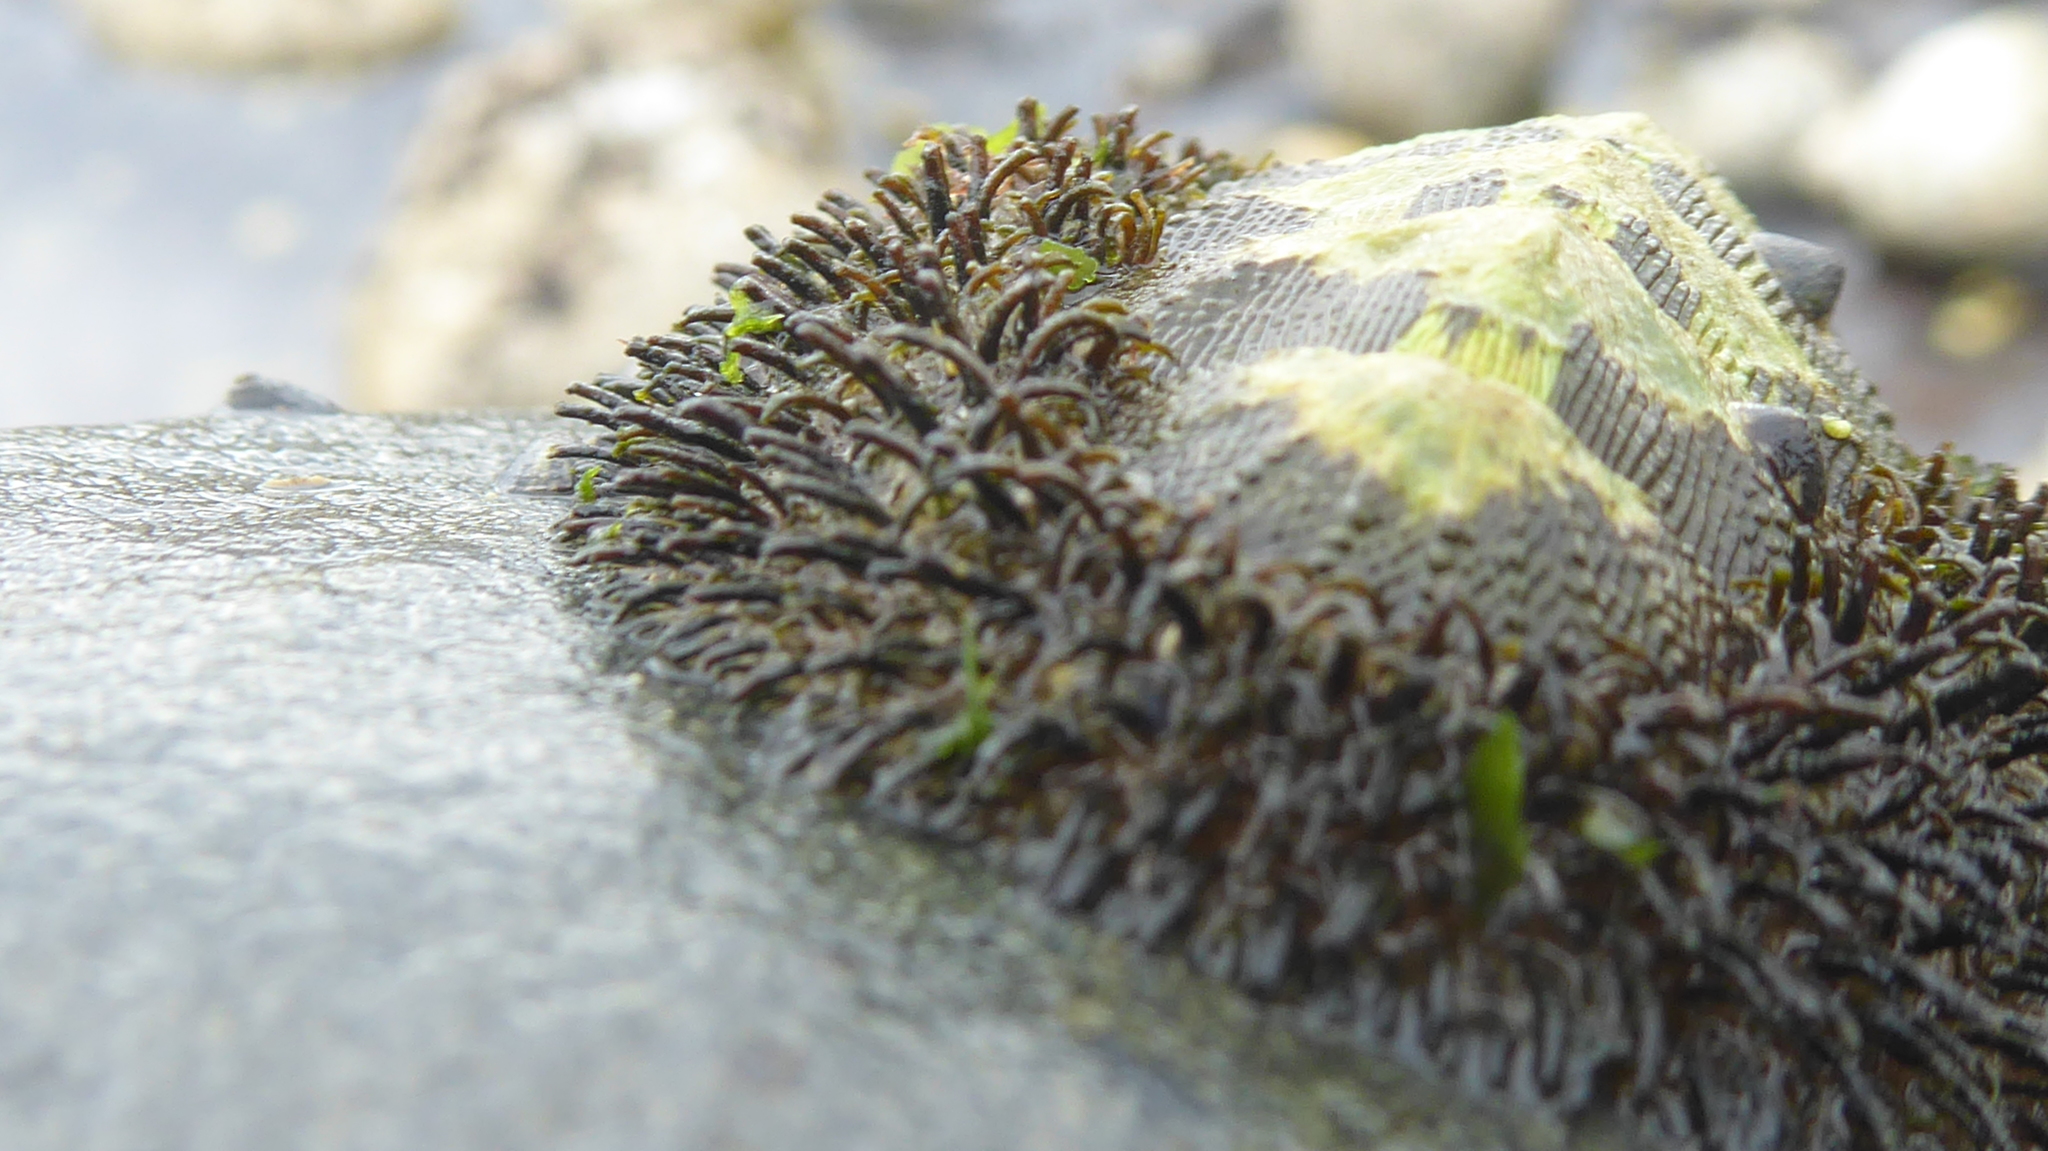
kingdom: Animalia
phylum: Mollusca
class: Polyplacophora
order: Chitonida
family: Mopaliidae
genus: Mopalia
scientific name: Mopalia muscosa
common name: Mossy chiton
